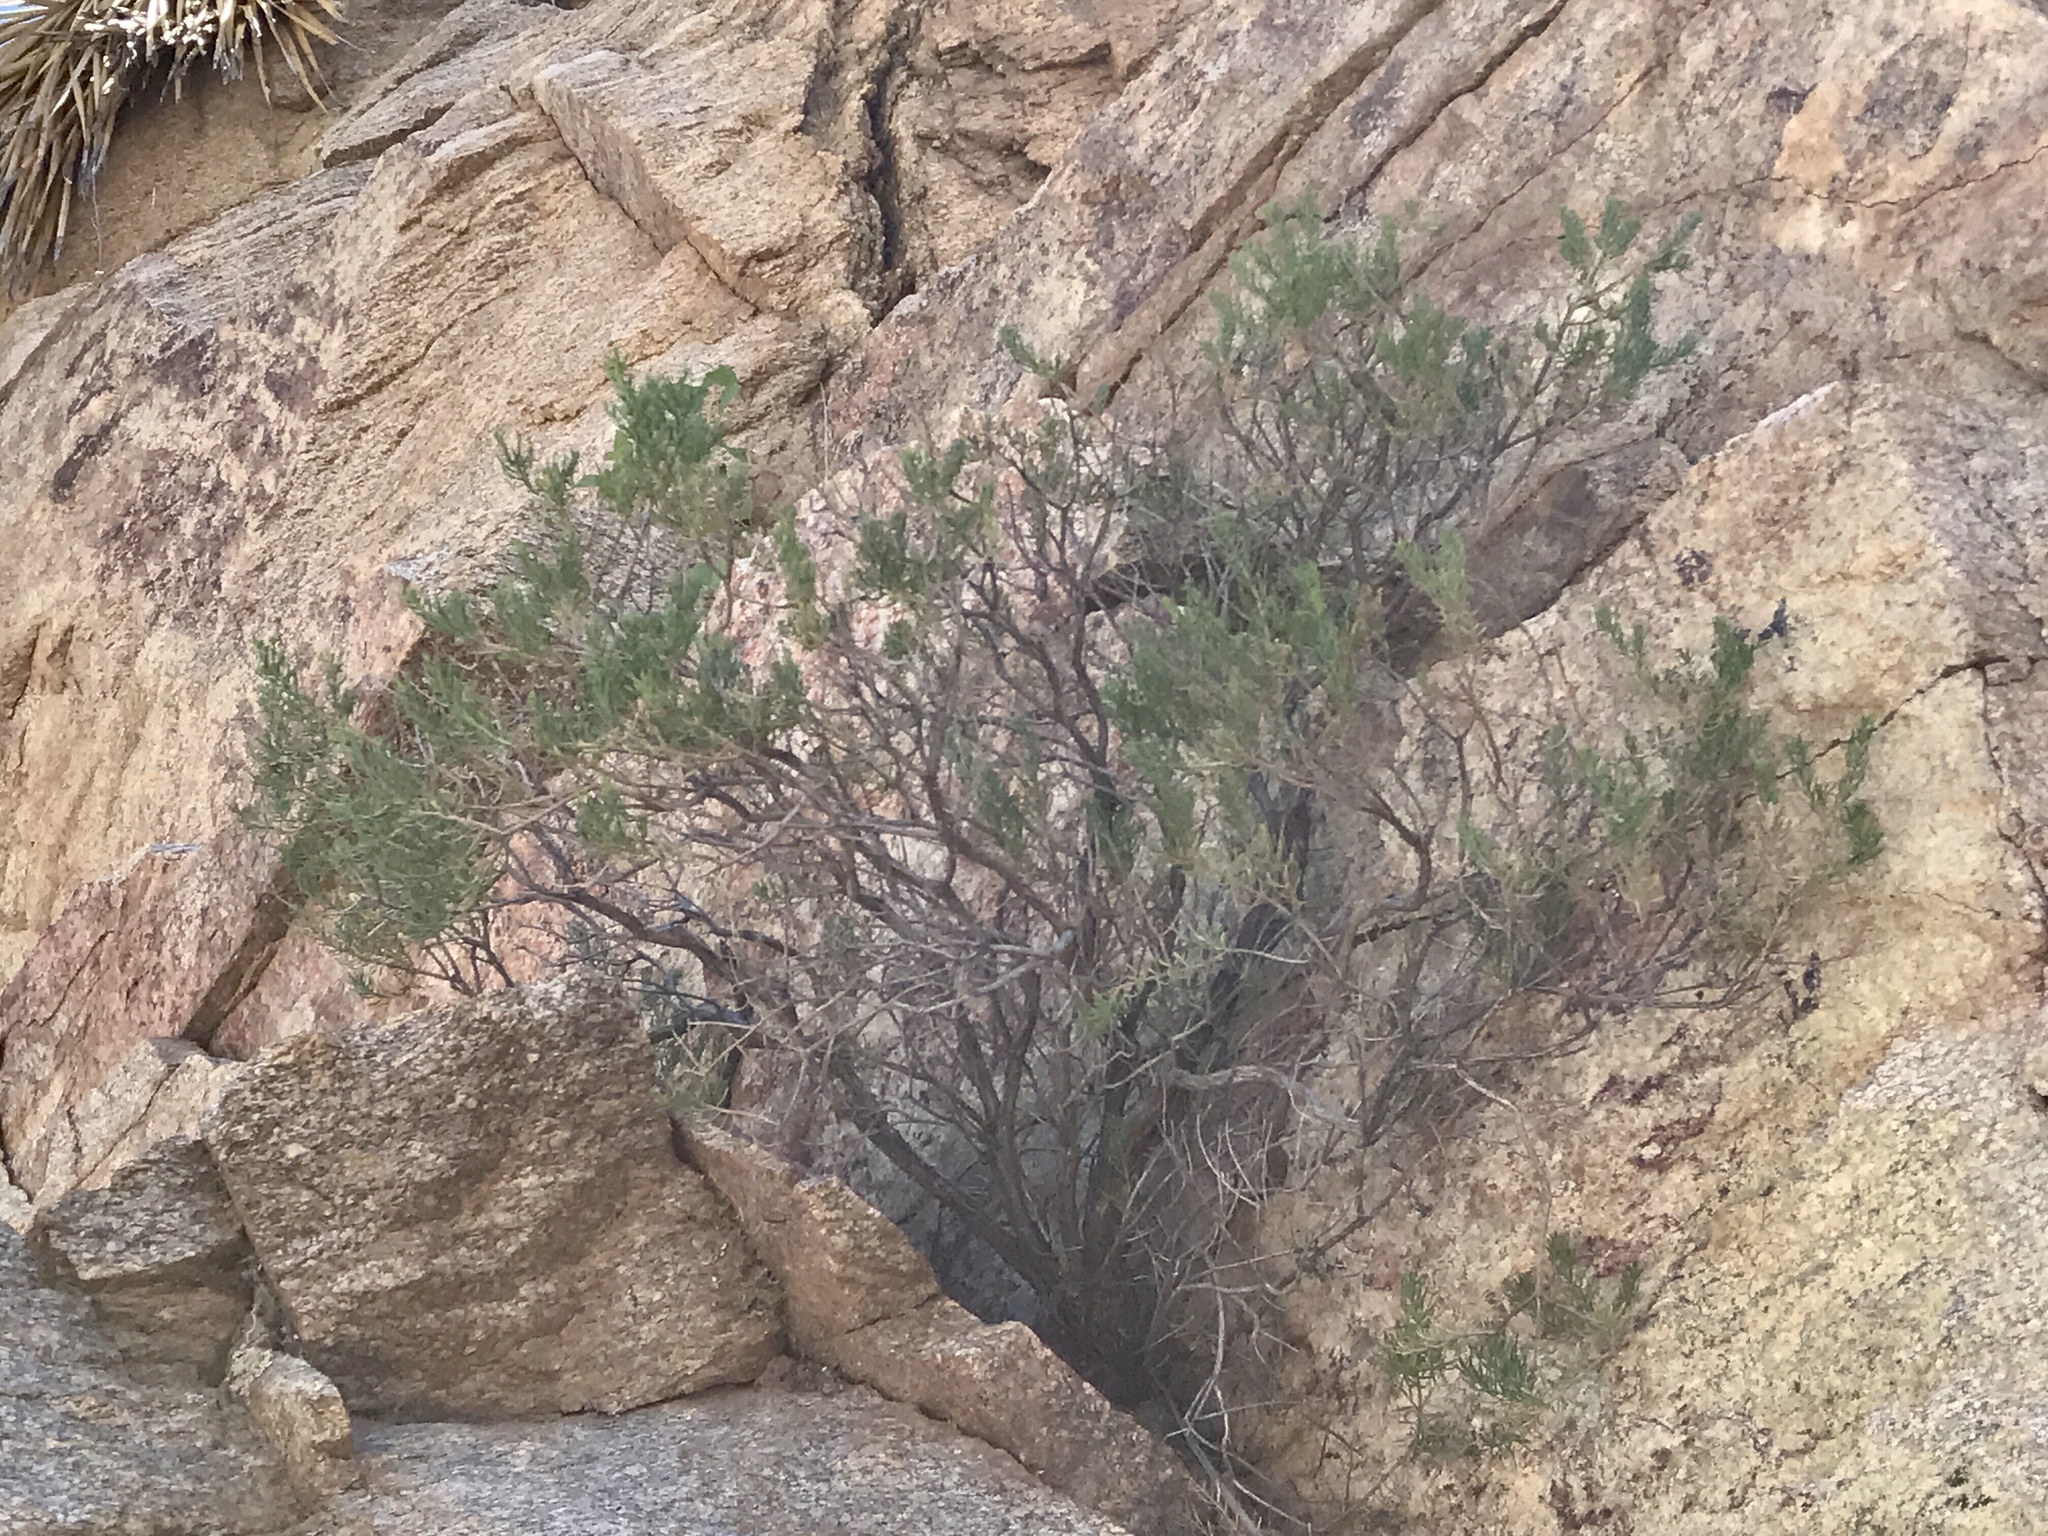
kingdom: Plantae
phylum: Tracheophyta
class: Magnoliopsida
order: Asterales
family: Asteraceae
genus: Ericameria
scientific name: Ericameria laricifolia
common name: Turpentine-bush
